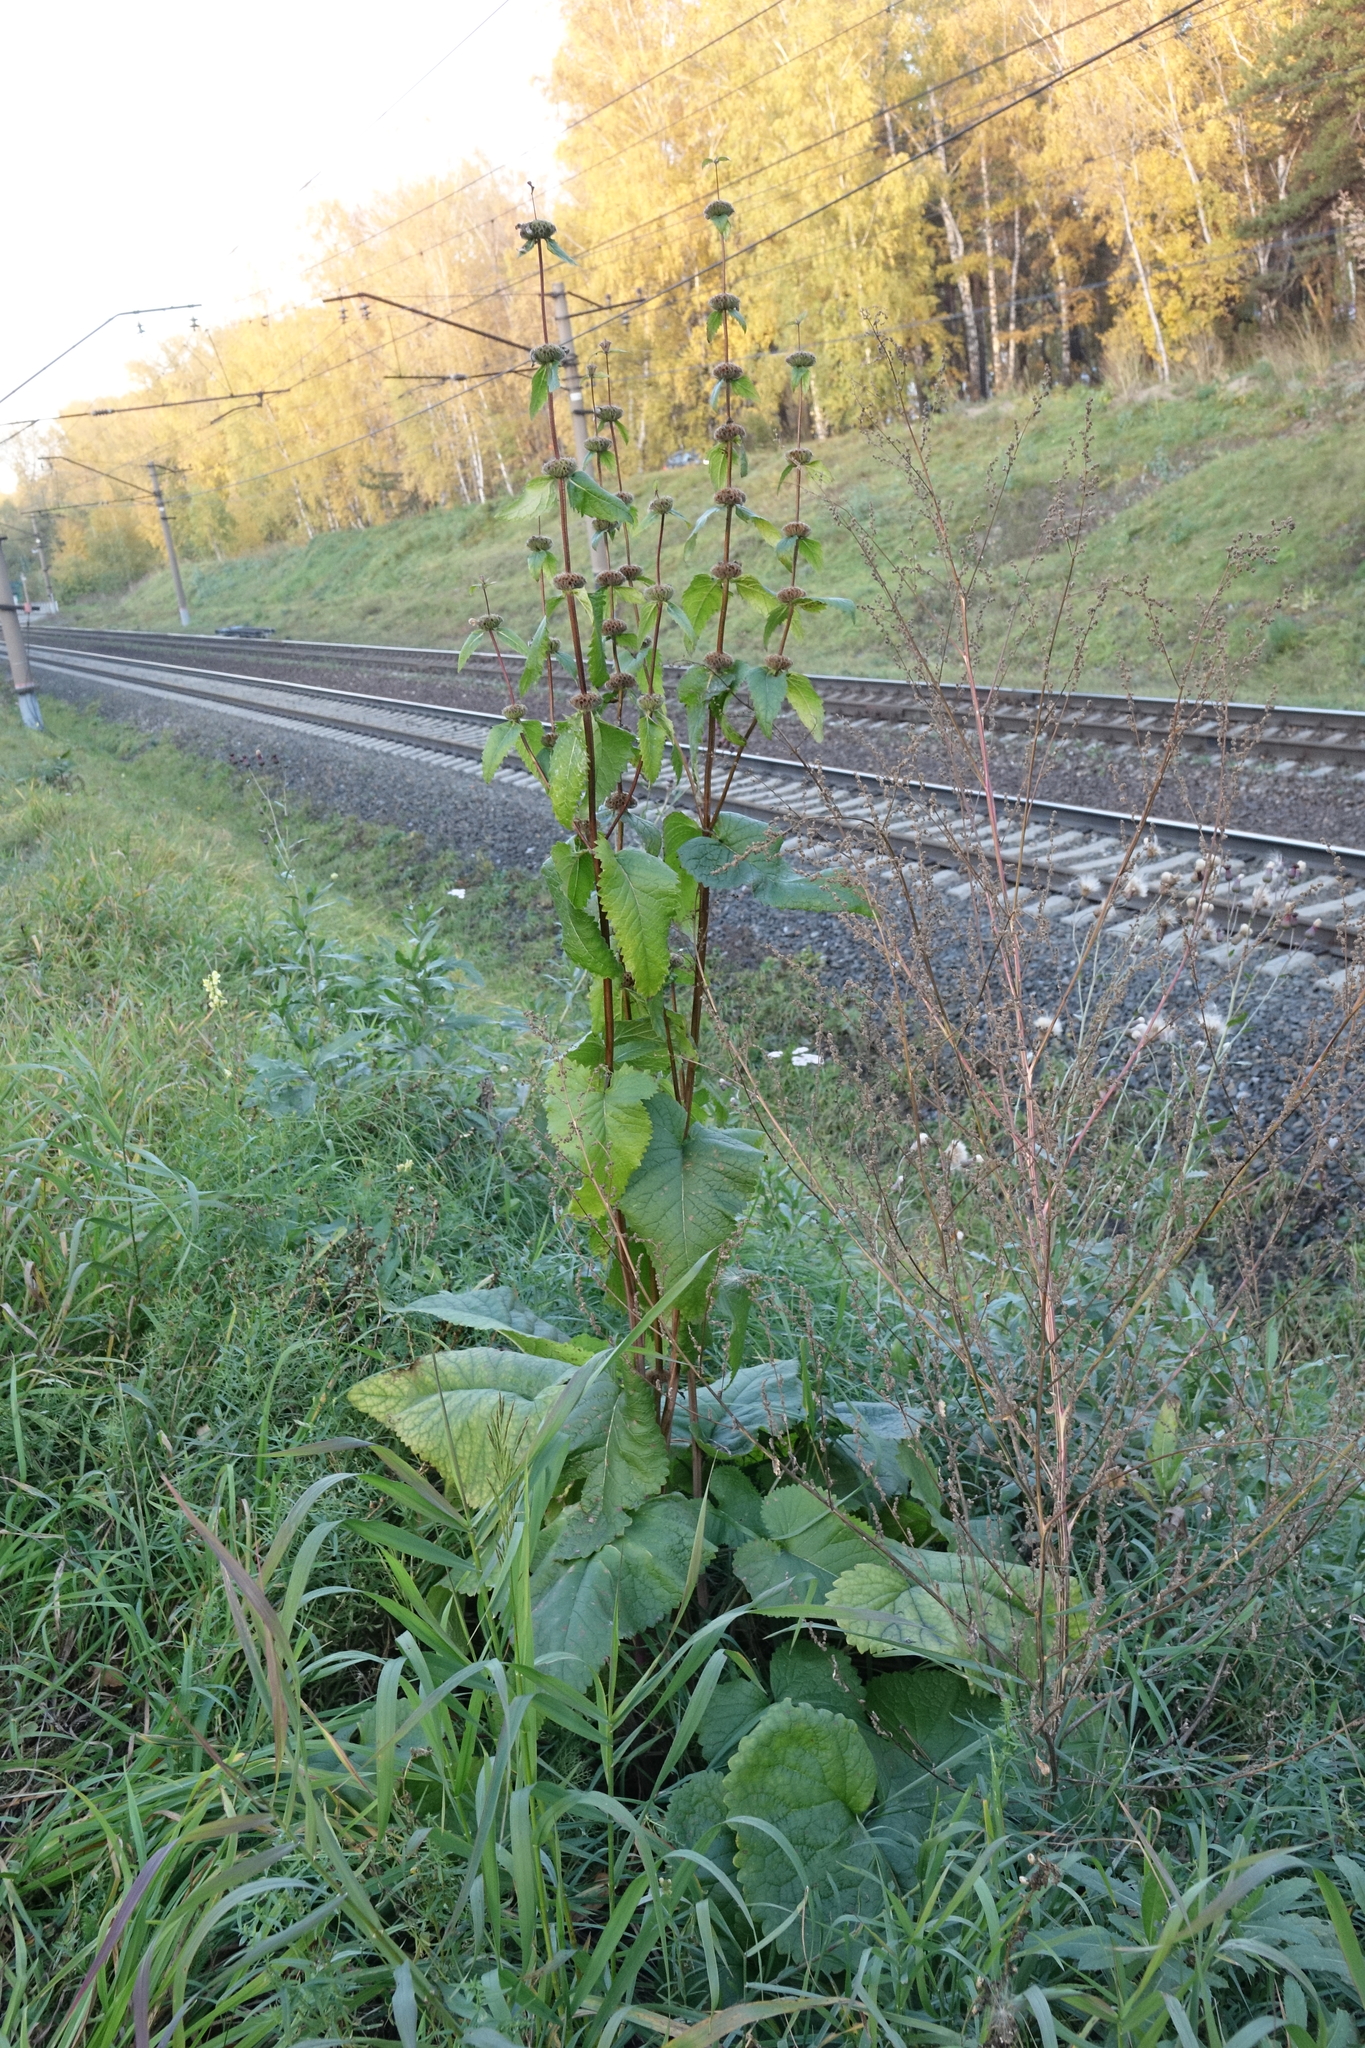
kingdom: Plantae
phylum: Tracheophyta
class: Magnoliopsida
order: Lamiales
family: Lamiaceae
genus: Phlomoides
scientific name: Phlomoides tuberosa
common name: Tuberous jerusalem sage
